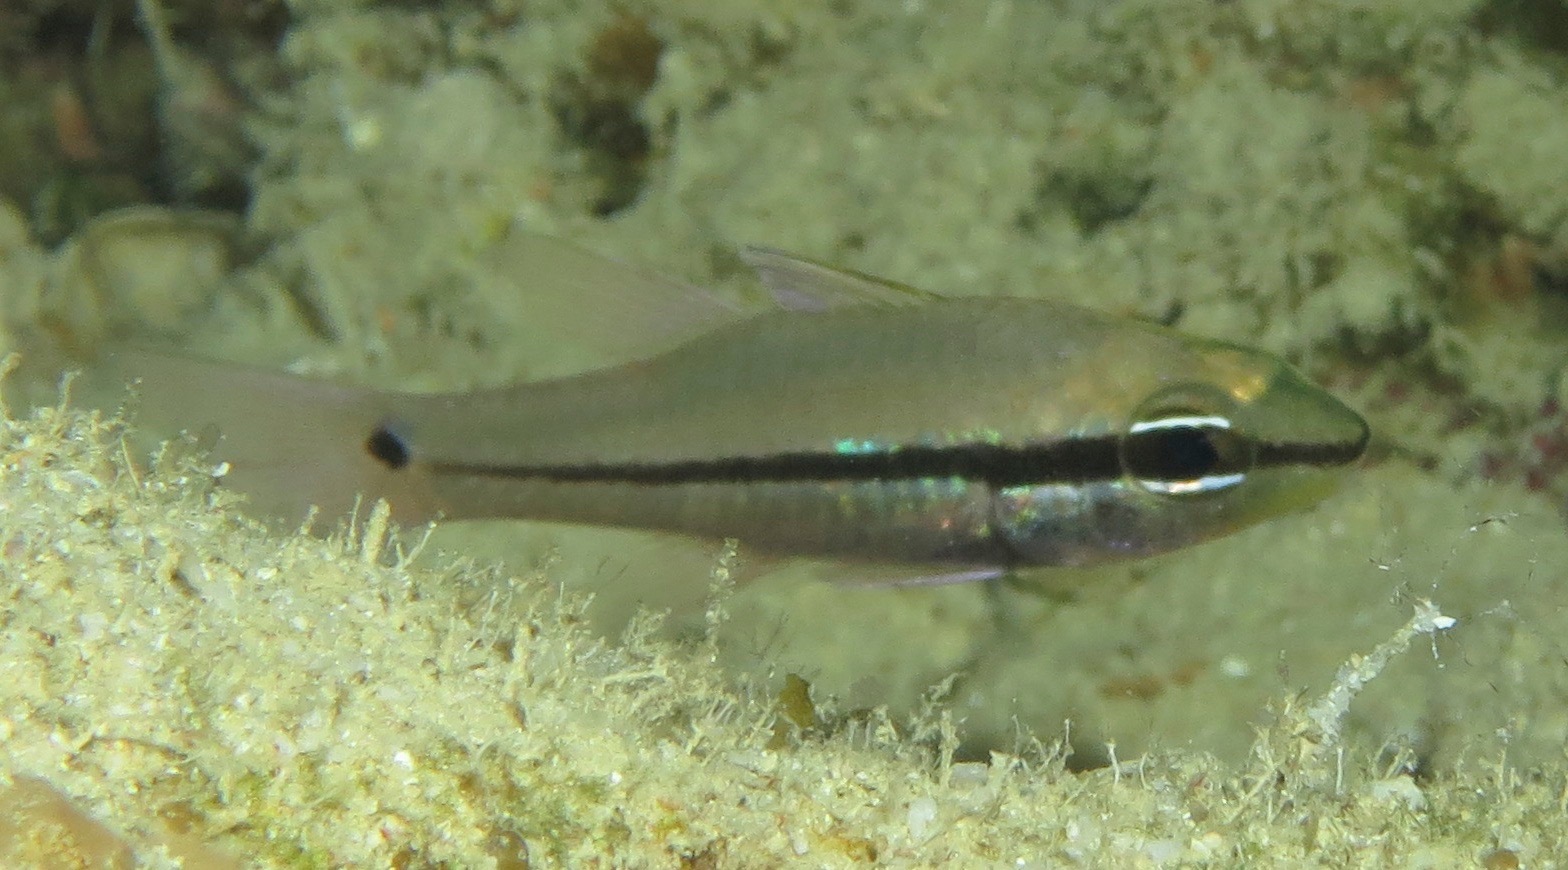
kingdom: Animalia
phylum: Chordata
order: Perciformes
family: Apogonidae
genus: Pristiapogon
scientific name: Pristiapogon exostigma
